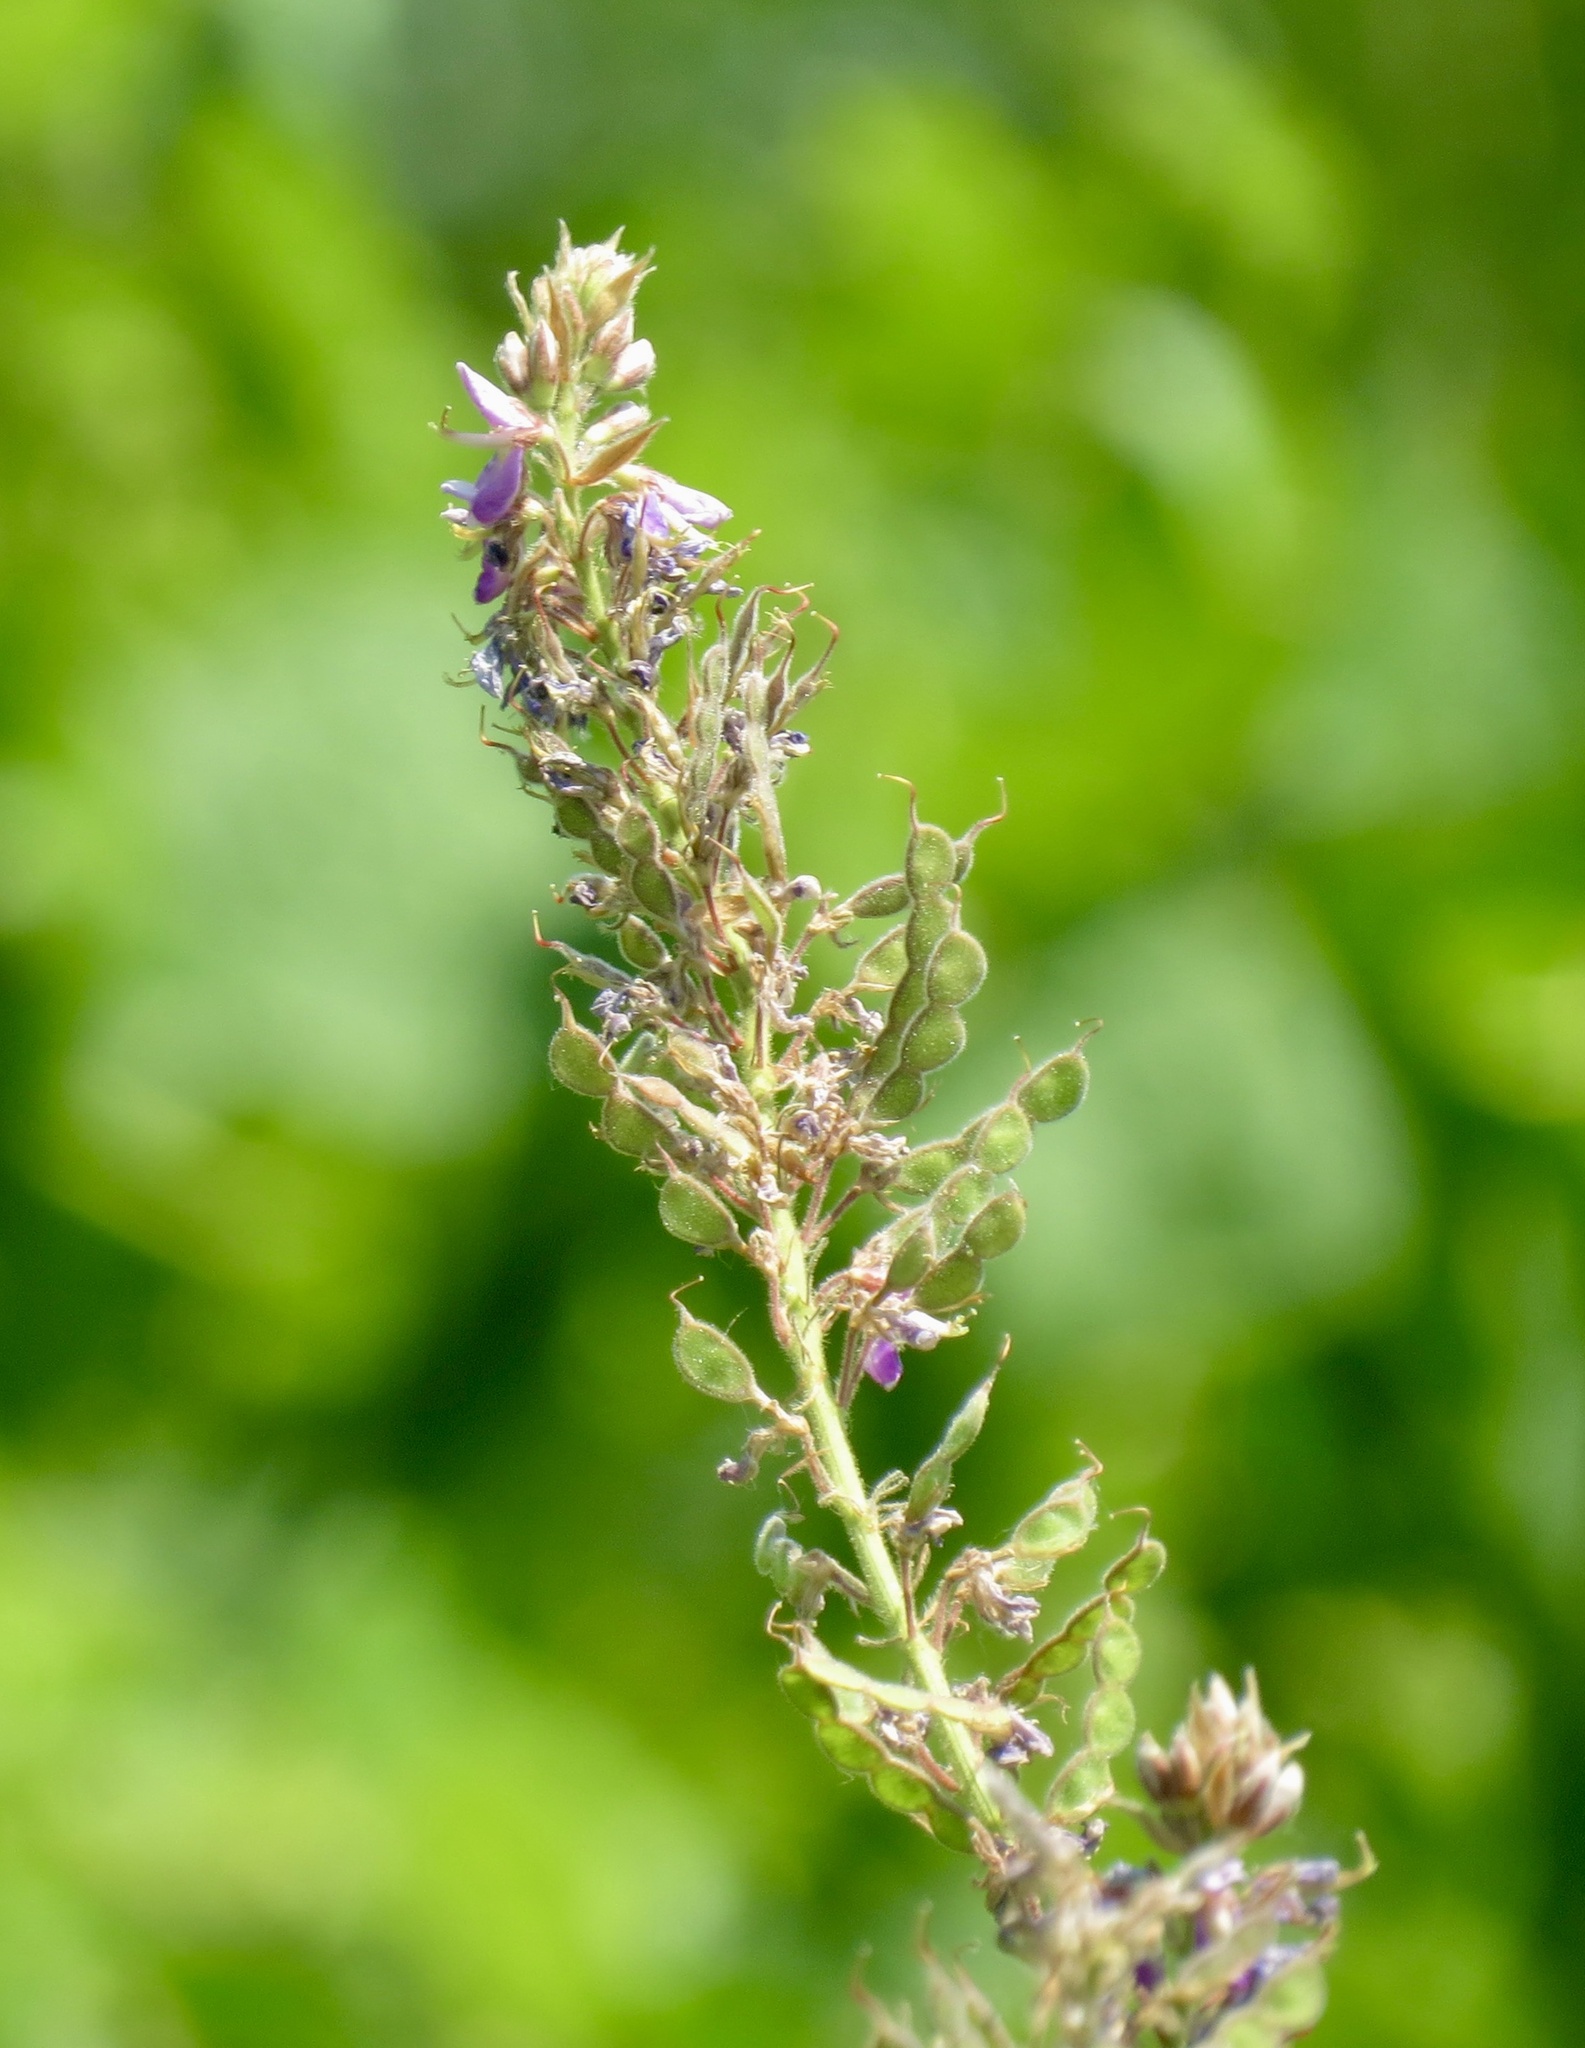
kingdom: Plantae
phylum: Tracheophyta
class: Magnoliopsida
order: Fabales
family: Fabaceae
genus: Desmodium
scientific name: Desmodium canadense
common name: Canada tick-trefoil
